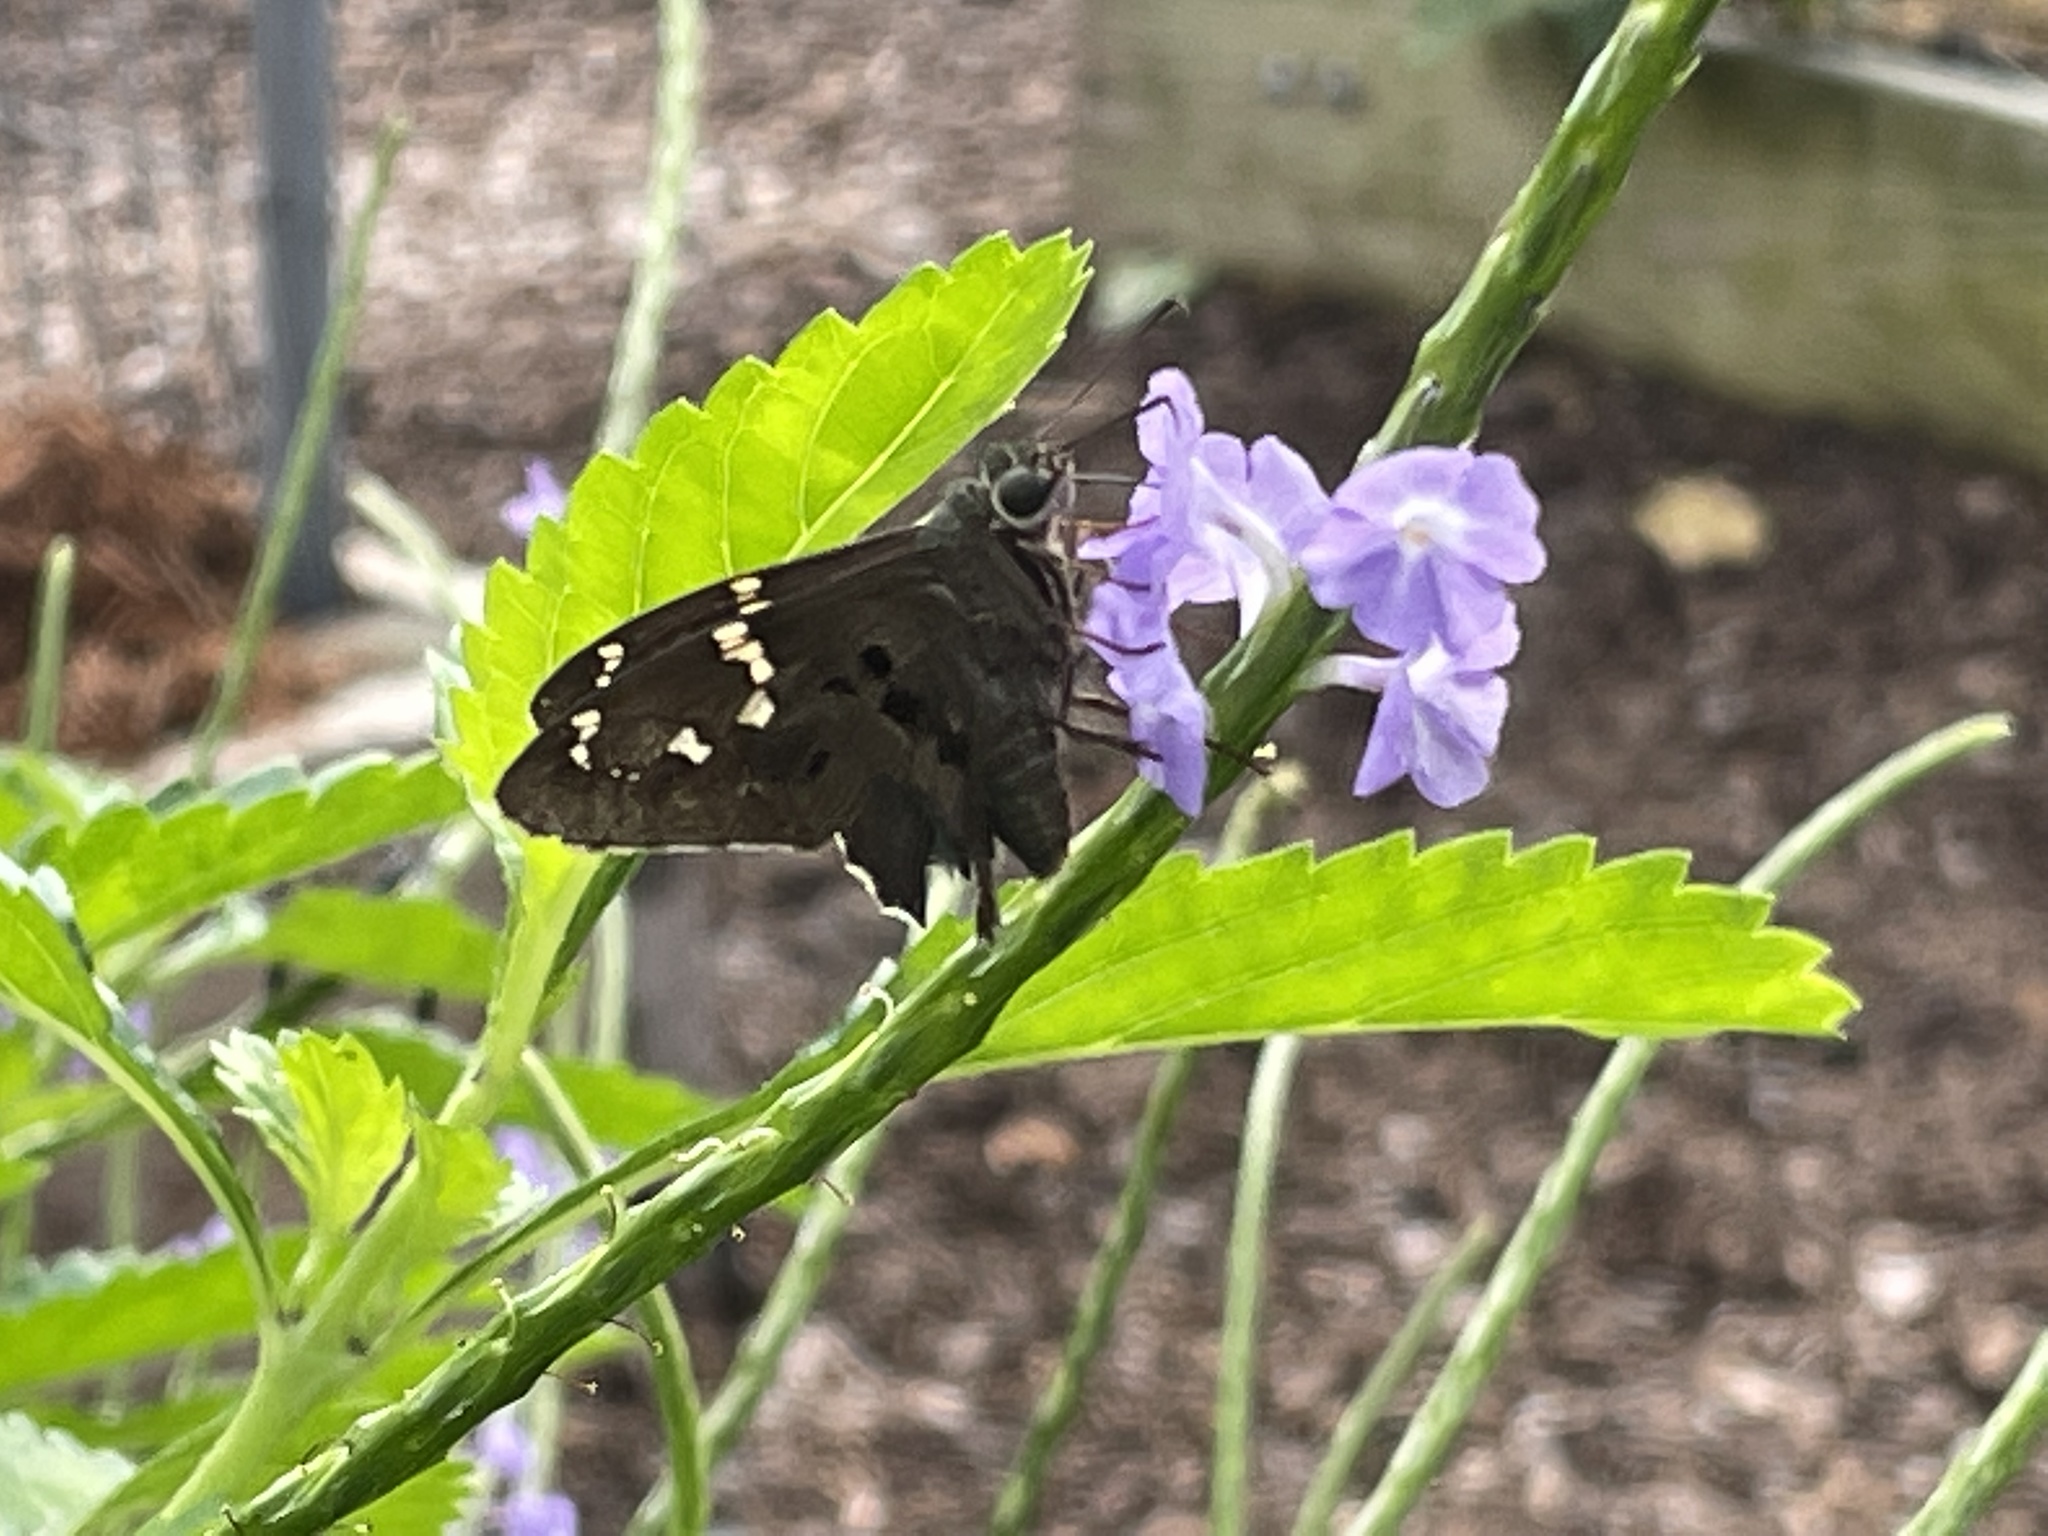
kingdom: Animalia
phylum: Arthropoda
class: Insecta
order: Lepidoptera
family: Hesperiidae
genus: Urbanus
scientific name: Urbanus proteus
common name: Long-tailed skipper
